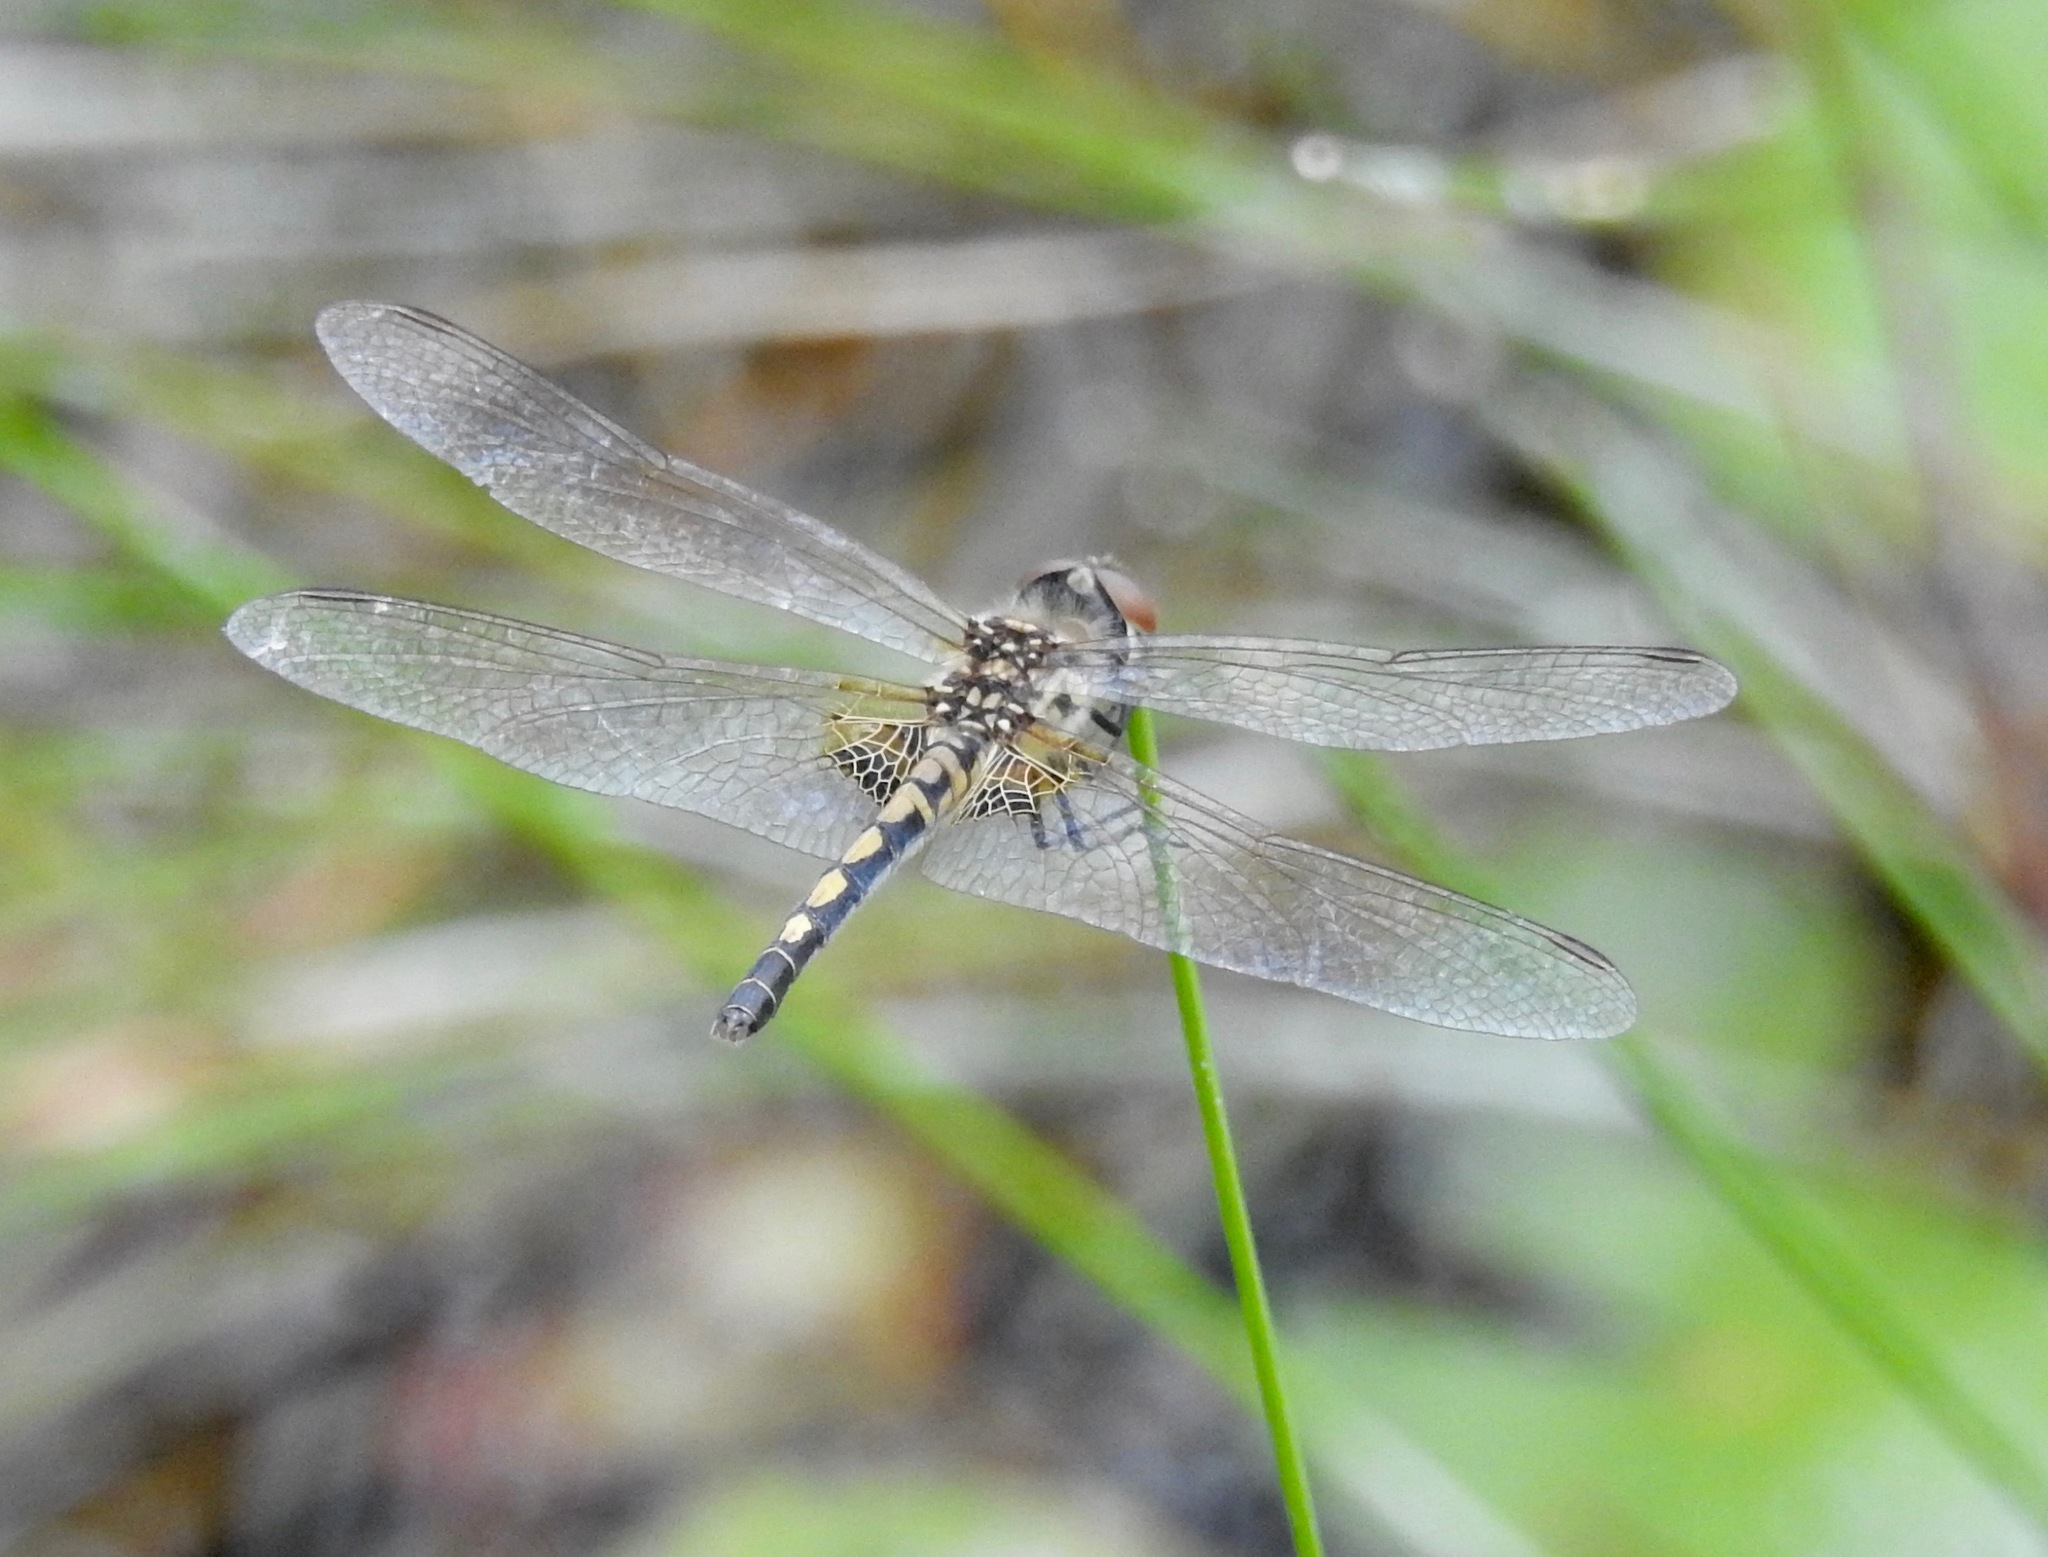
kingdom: Animalia
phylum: Arthropoda
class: Insecta
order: Odonata
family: Libellulidae
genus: Celithemis
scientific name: Celithemis ornata
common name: Ornate pennant
